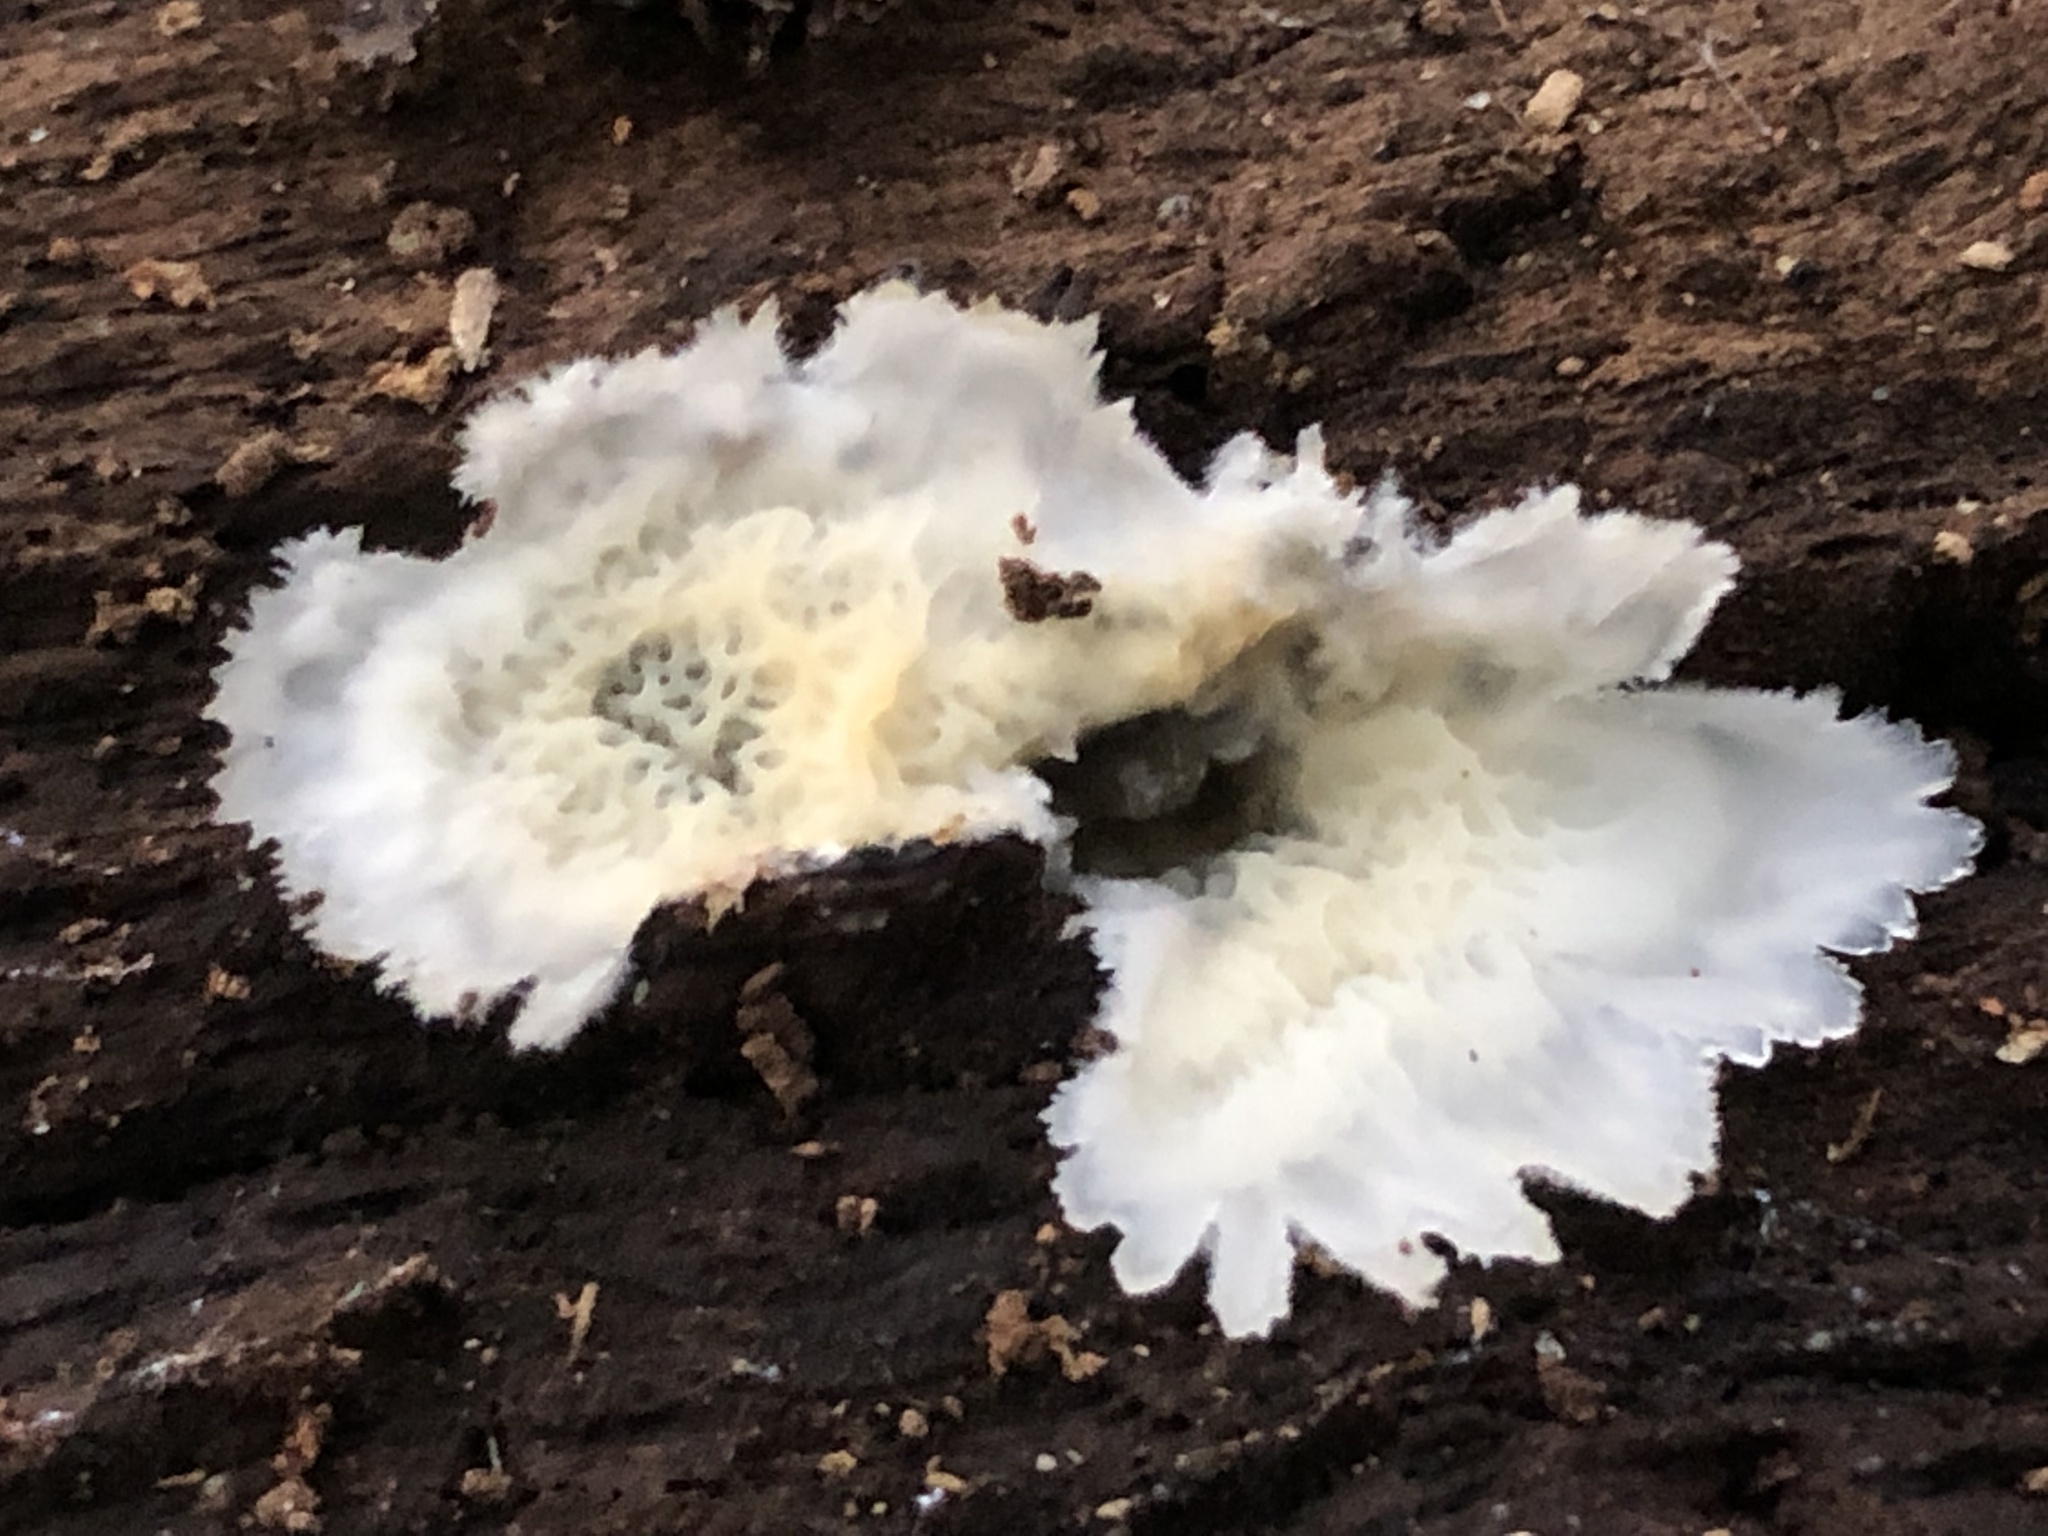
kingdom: Fungi
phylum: Basidiomycota
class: Agaricomycetes
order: Polyporales
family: Meruliaceae
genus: Phlebia
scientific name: Phlebia tremellosa
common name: Jelly rot
